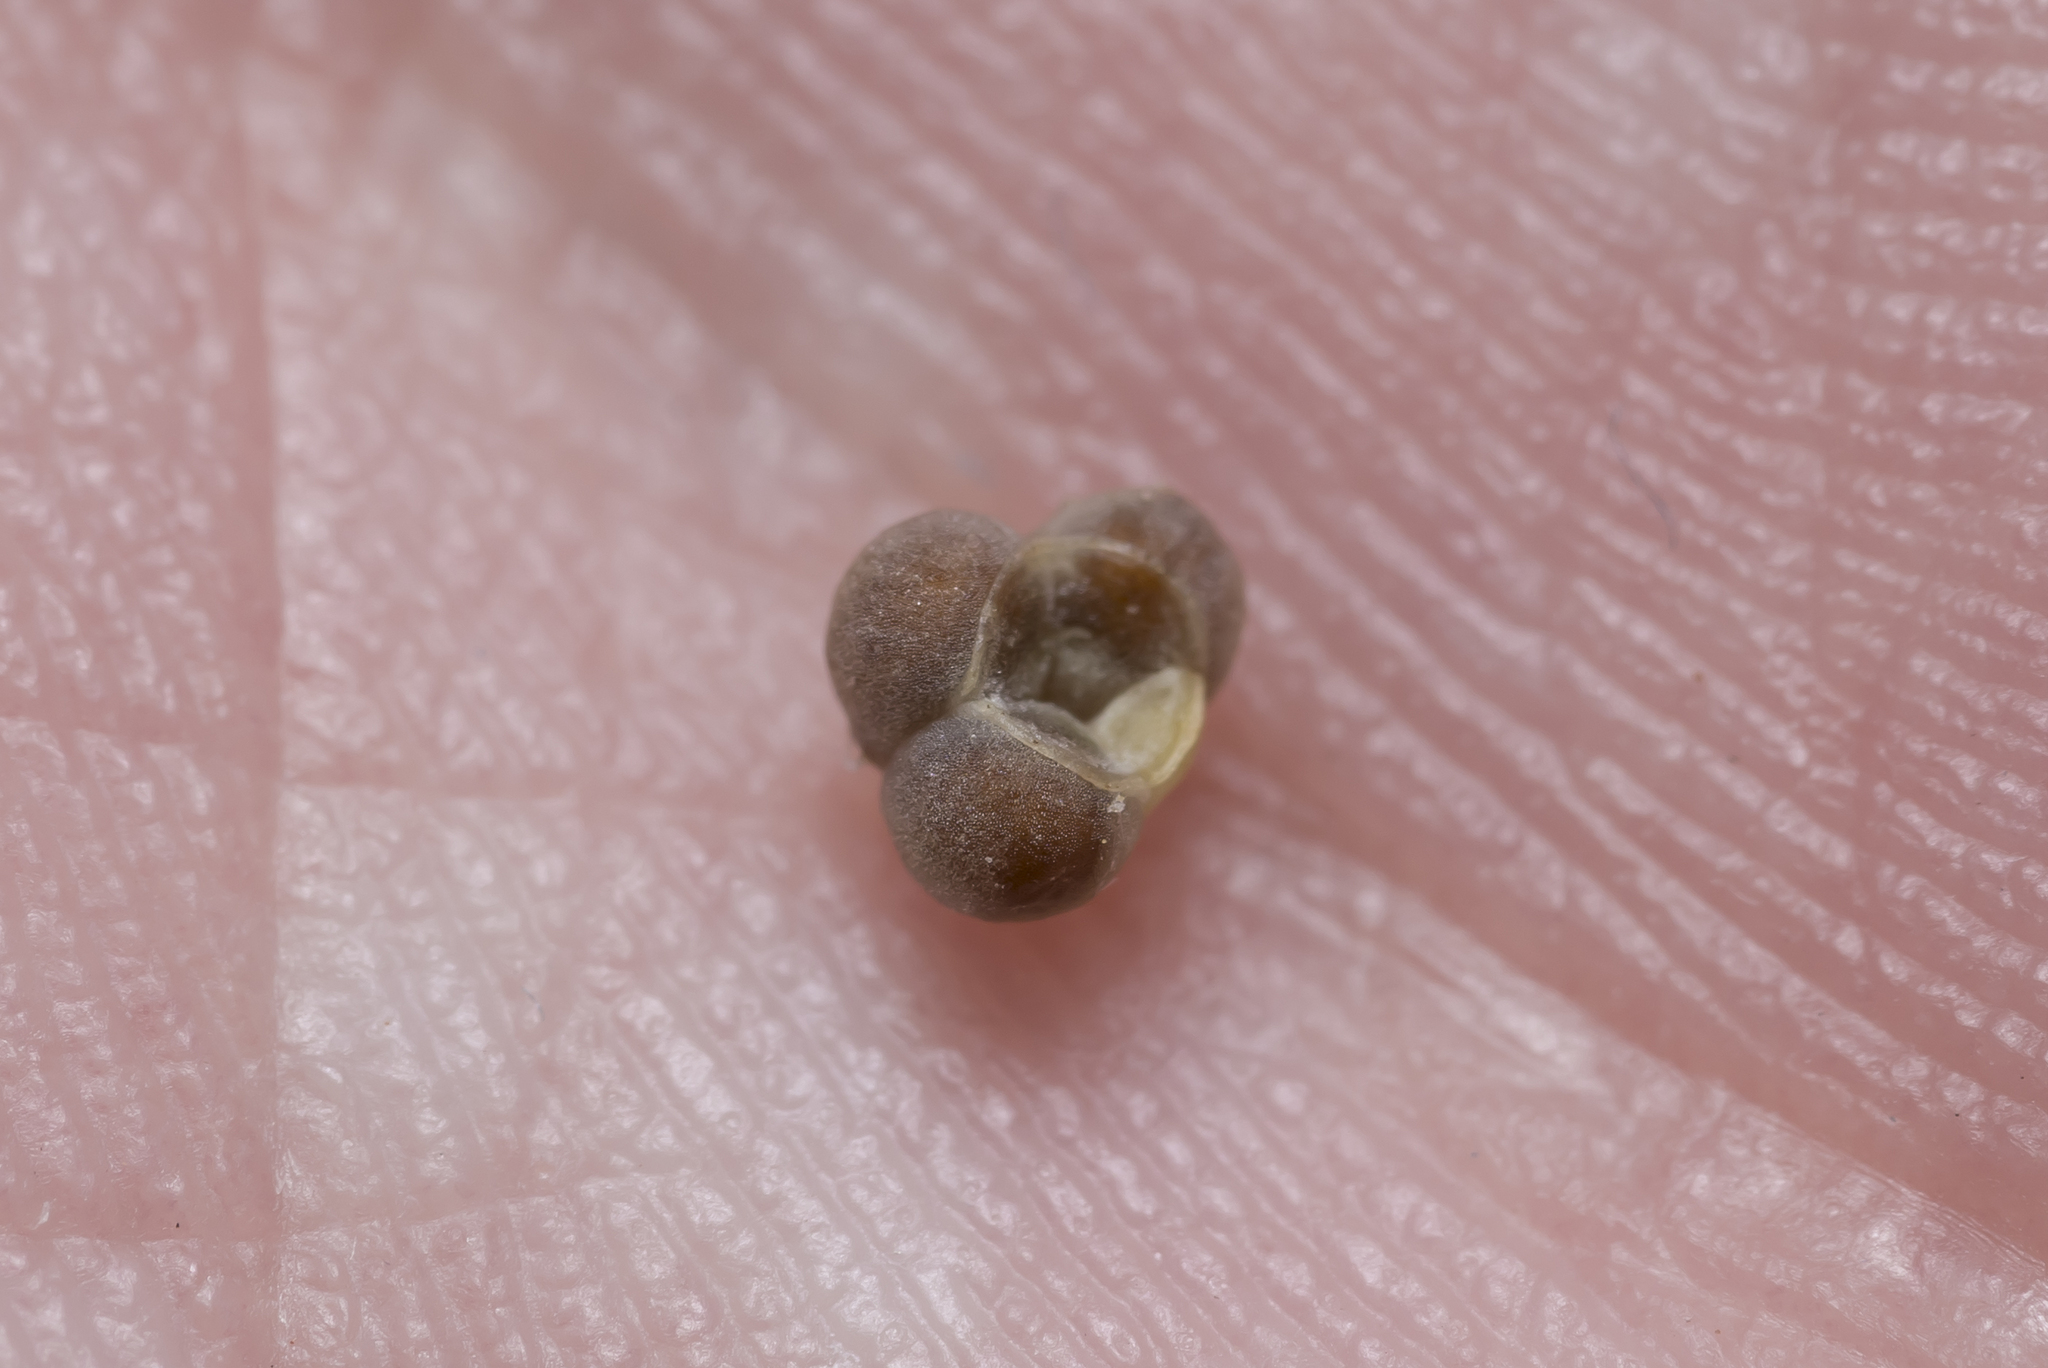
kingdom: Plantae
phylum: Tracheophyta
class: Magnoliopsida
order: Boraginales
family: Heliotropiaceae
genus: Heliotropium
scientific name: Heliotropium hirsutissimum
